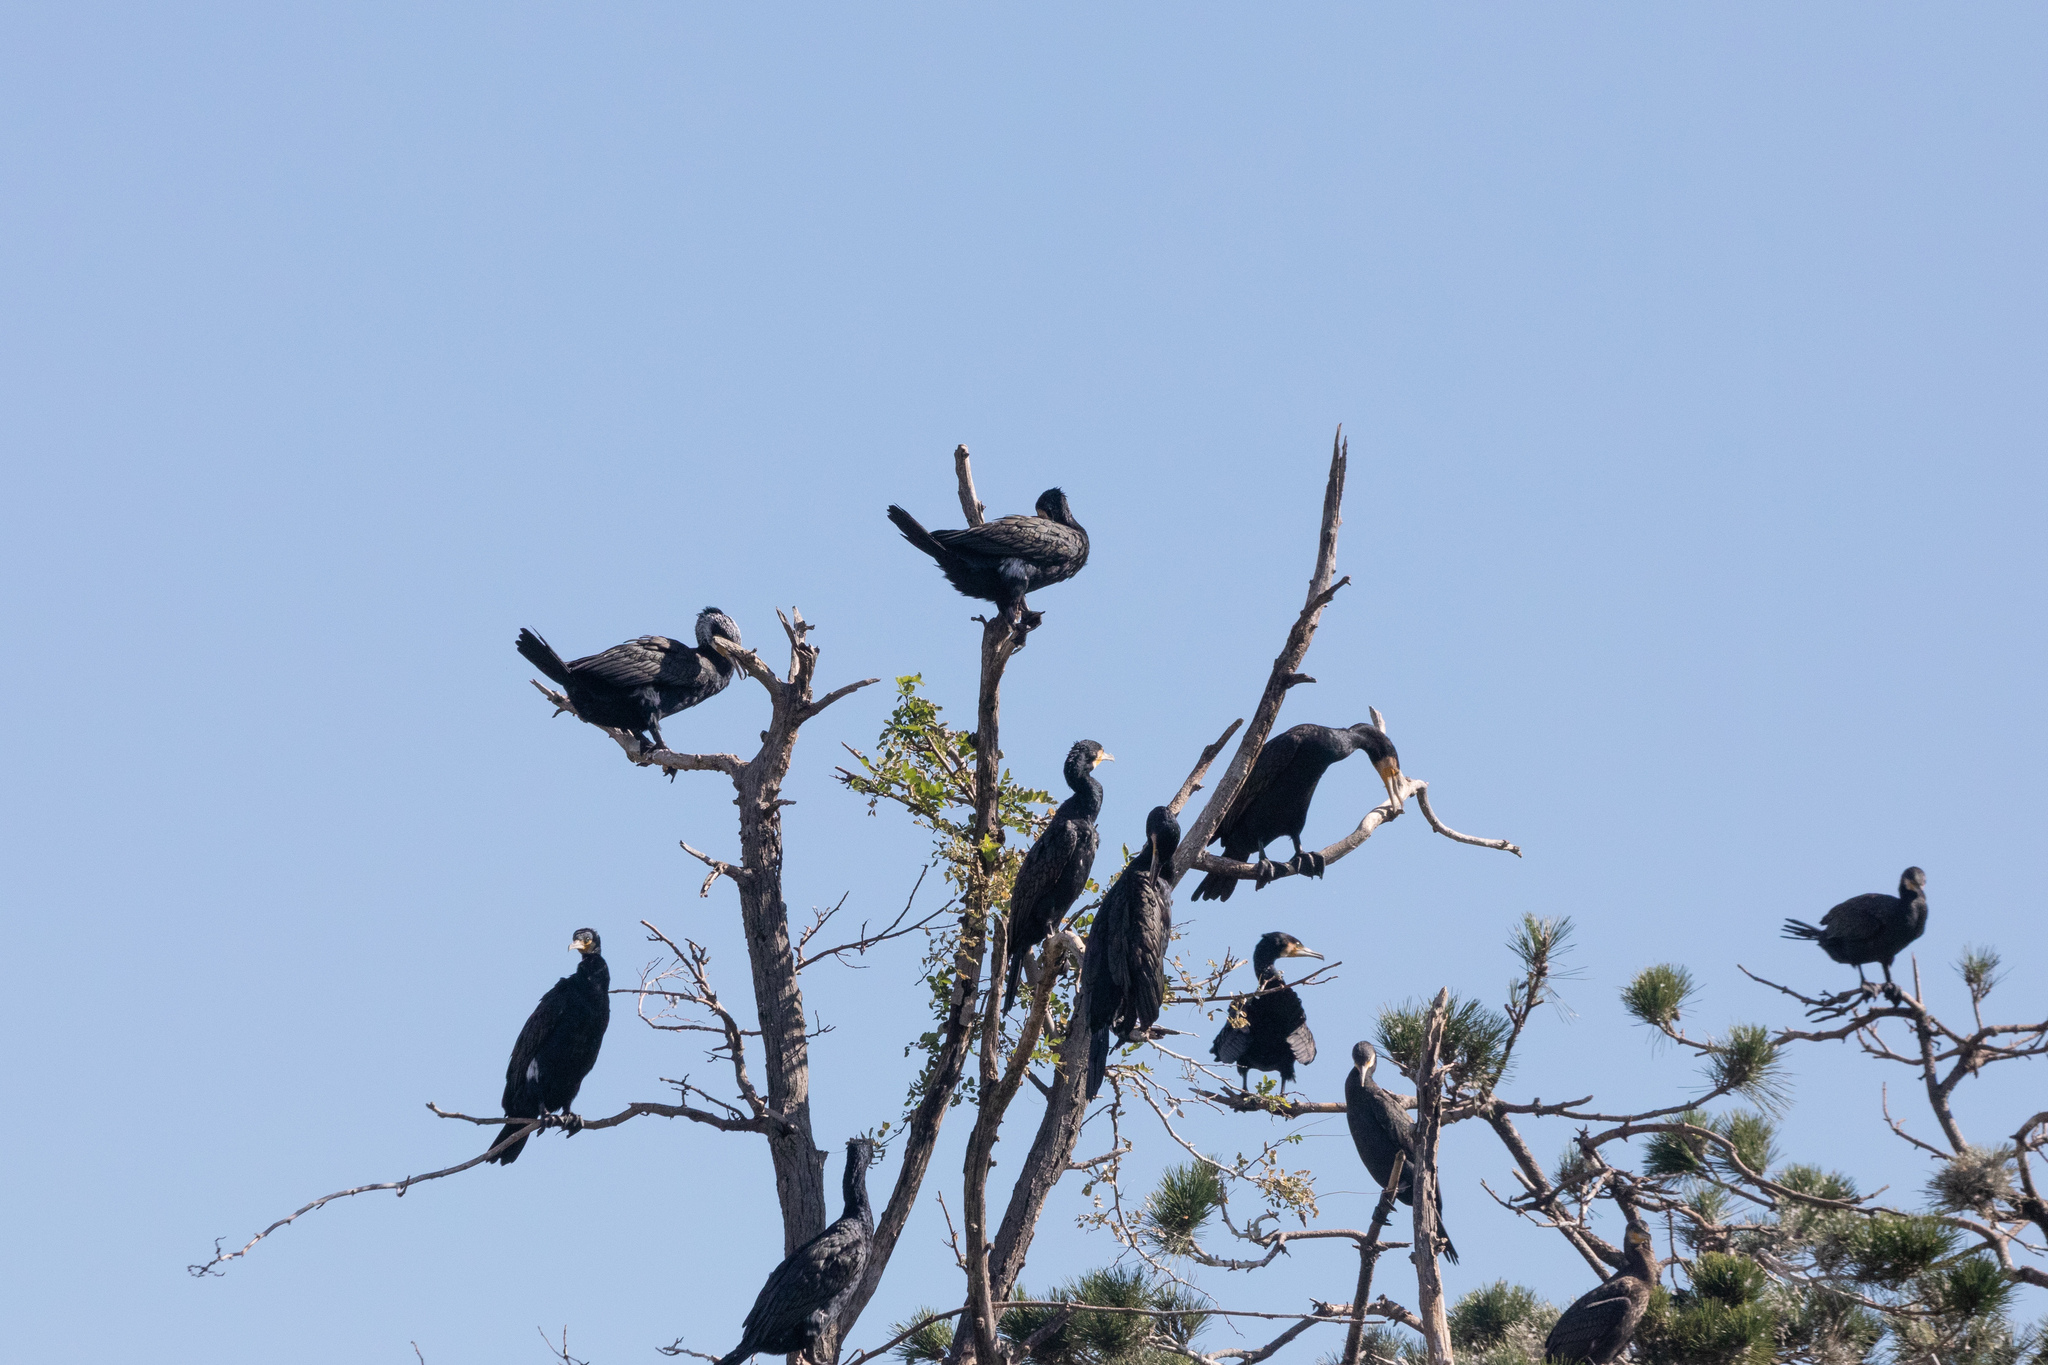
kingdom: Animalia
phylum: Chordata
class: Aves
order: Suliformes
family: Phalacrocoracidae
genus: Phalacrocorax
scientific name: Phalacrocorax carbo
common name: Great cormorant
